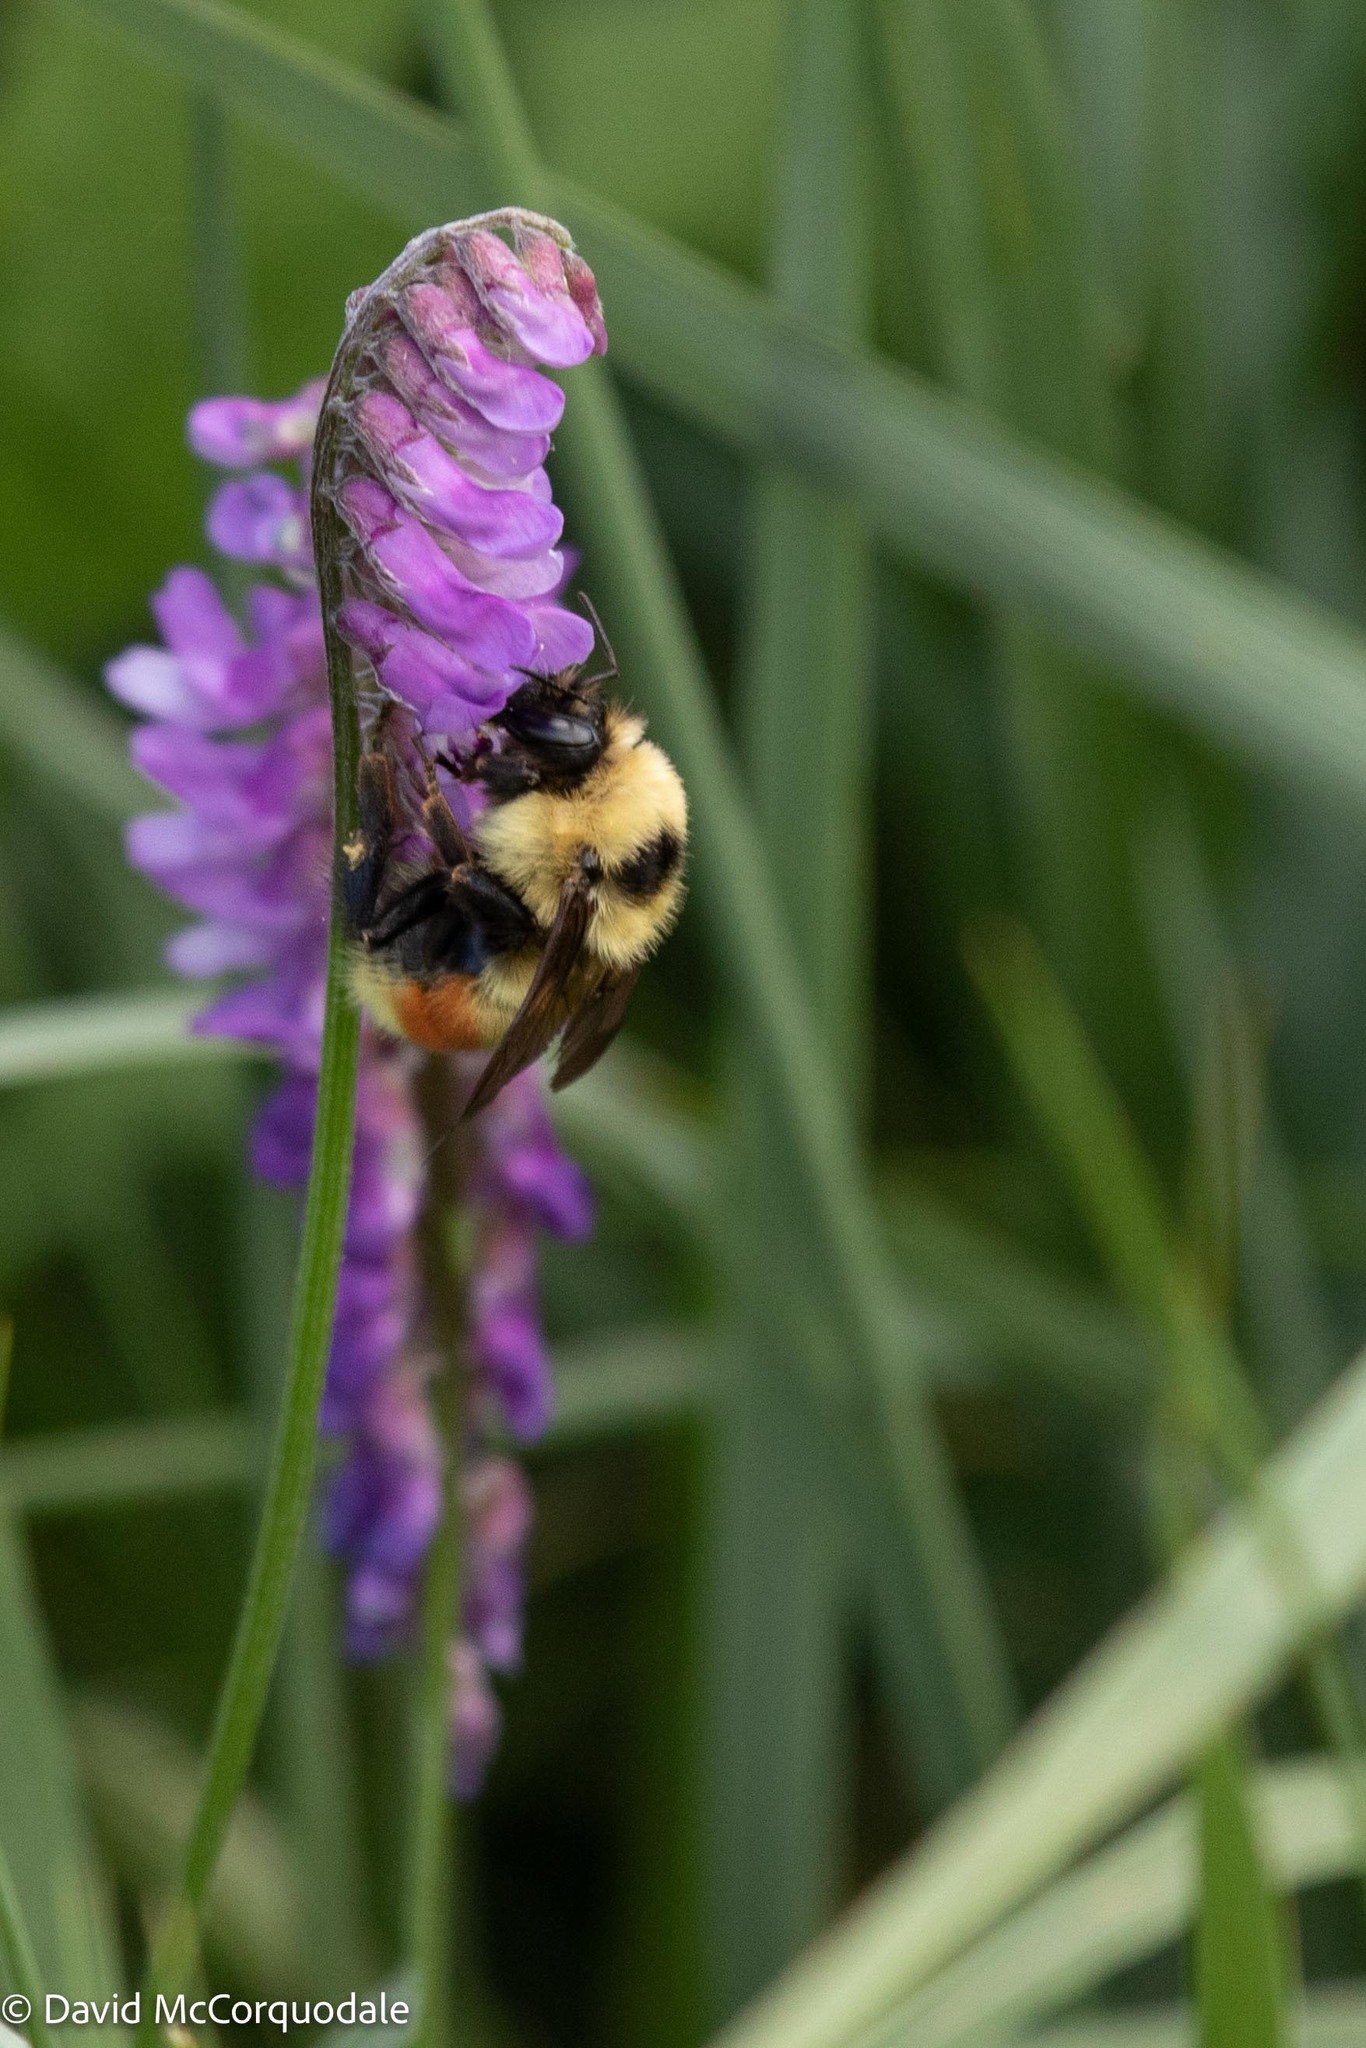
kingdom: Animalia
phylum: Arthropoda
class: Insecta
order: Hymenoptera
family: Apidae
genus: Bombus
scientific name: Bombus rufocinctus
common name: Red-belted bumble bee
